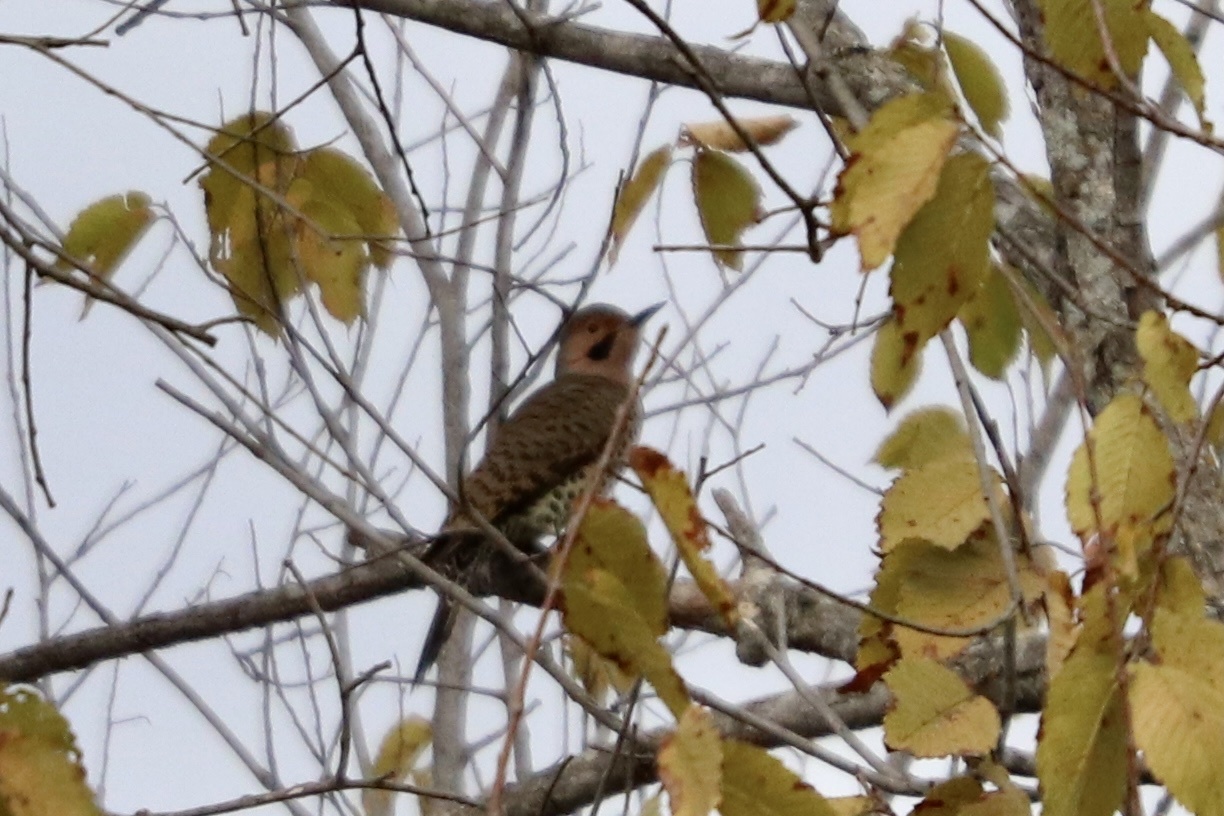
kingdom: Animalia
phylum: Chordata
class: Aves
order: Piciformes
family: Picidae
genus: Colaptes
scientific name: Colaptes auratus
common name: Northern flicker
